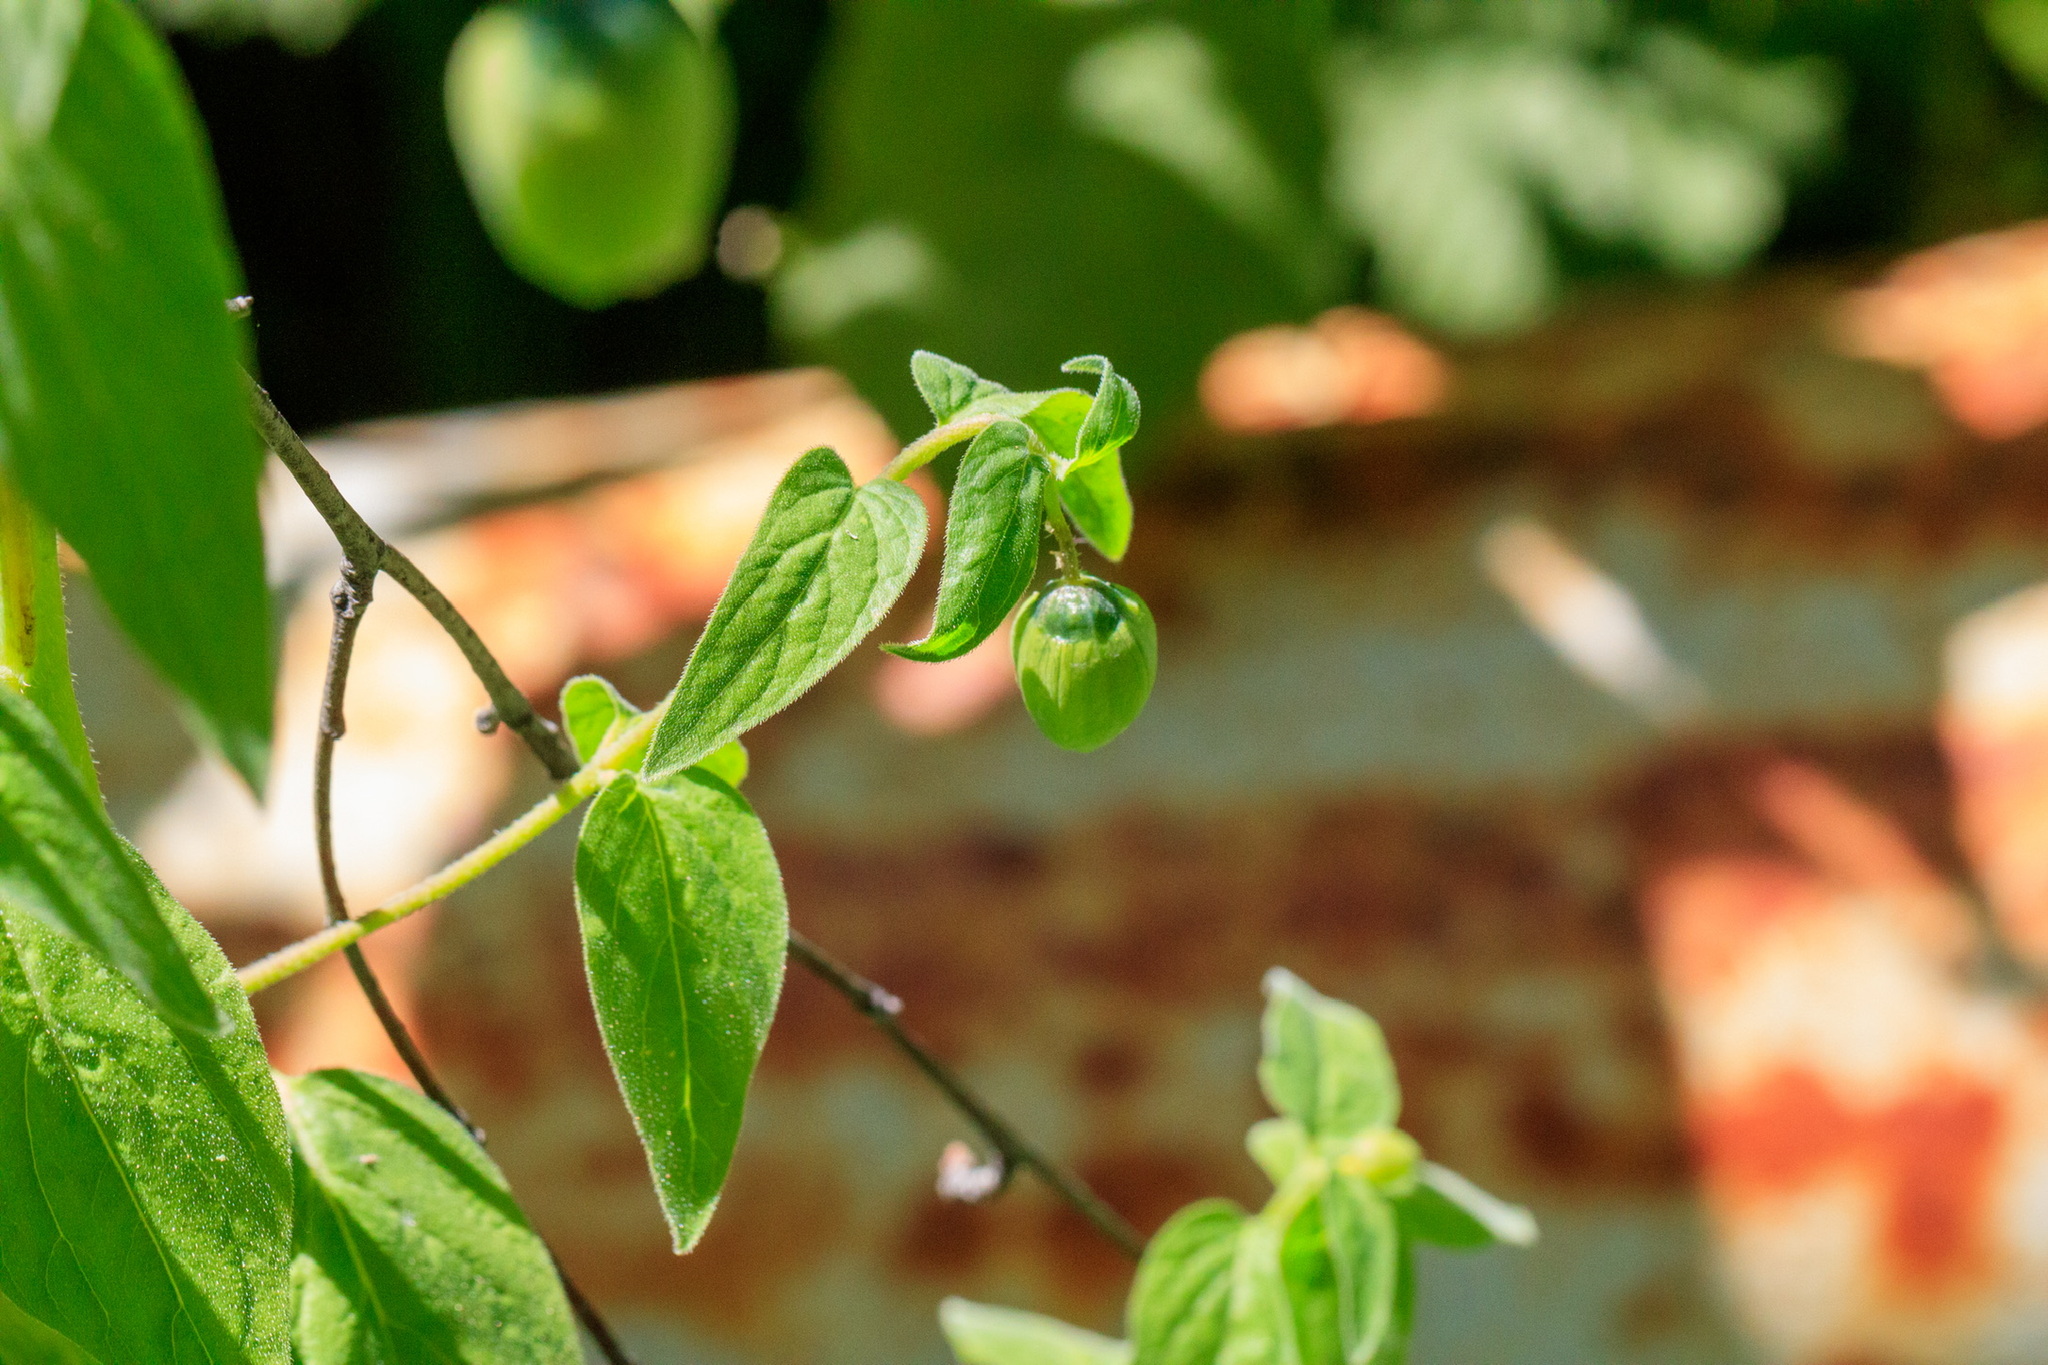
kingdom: Plantae
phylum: Tracheophyta
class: Magnoliopsida
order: Asterales
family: Campanulaceae
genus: Codonopsis
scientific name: Codonopsis clematidea
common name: Bonnet-bellflower
